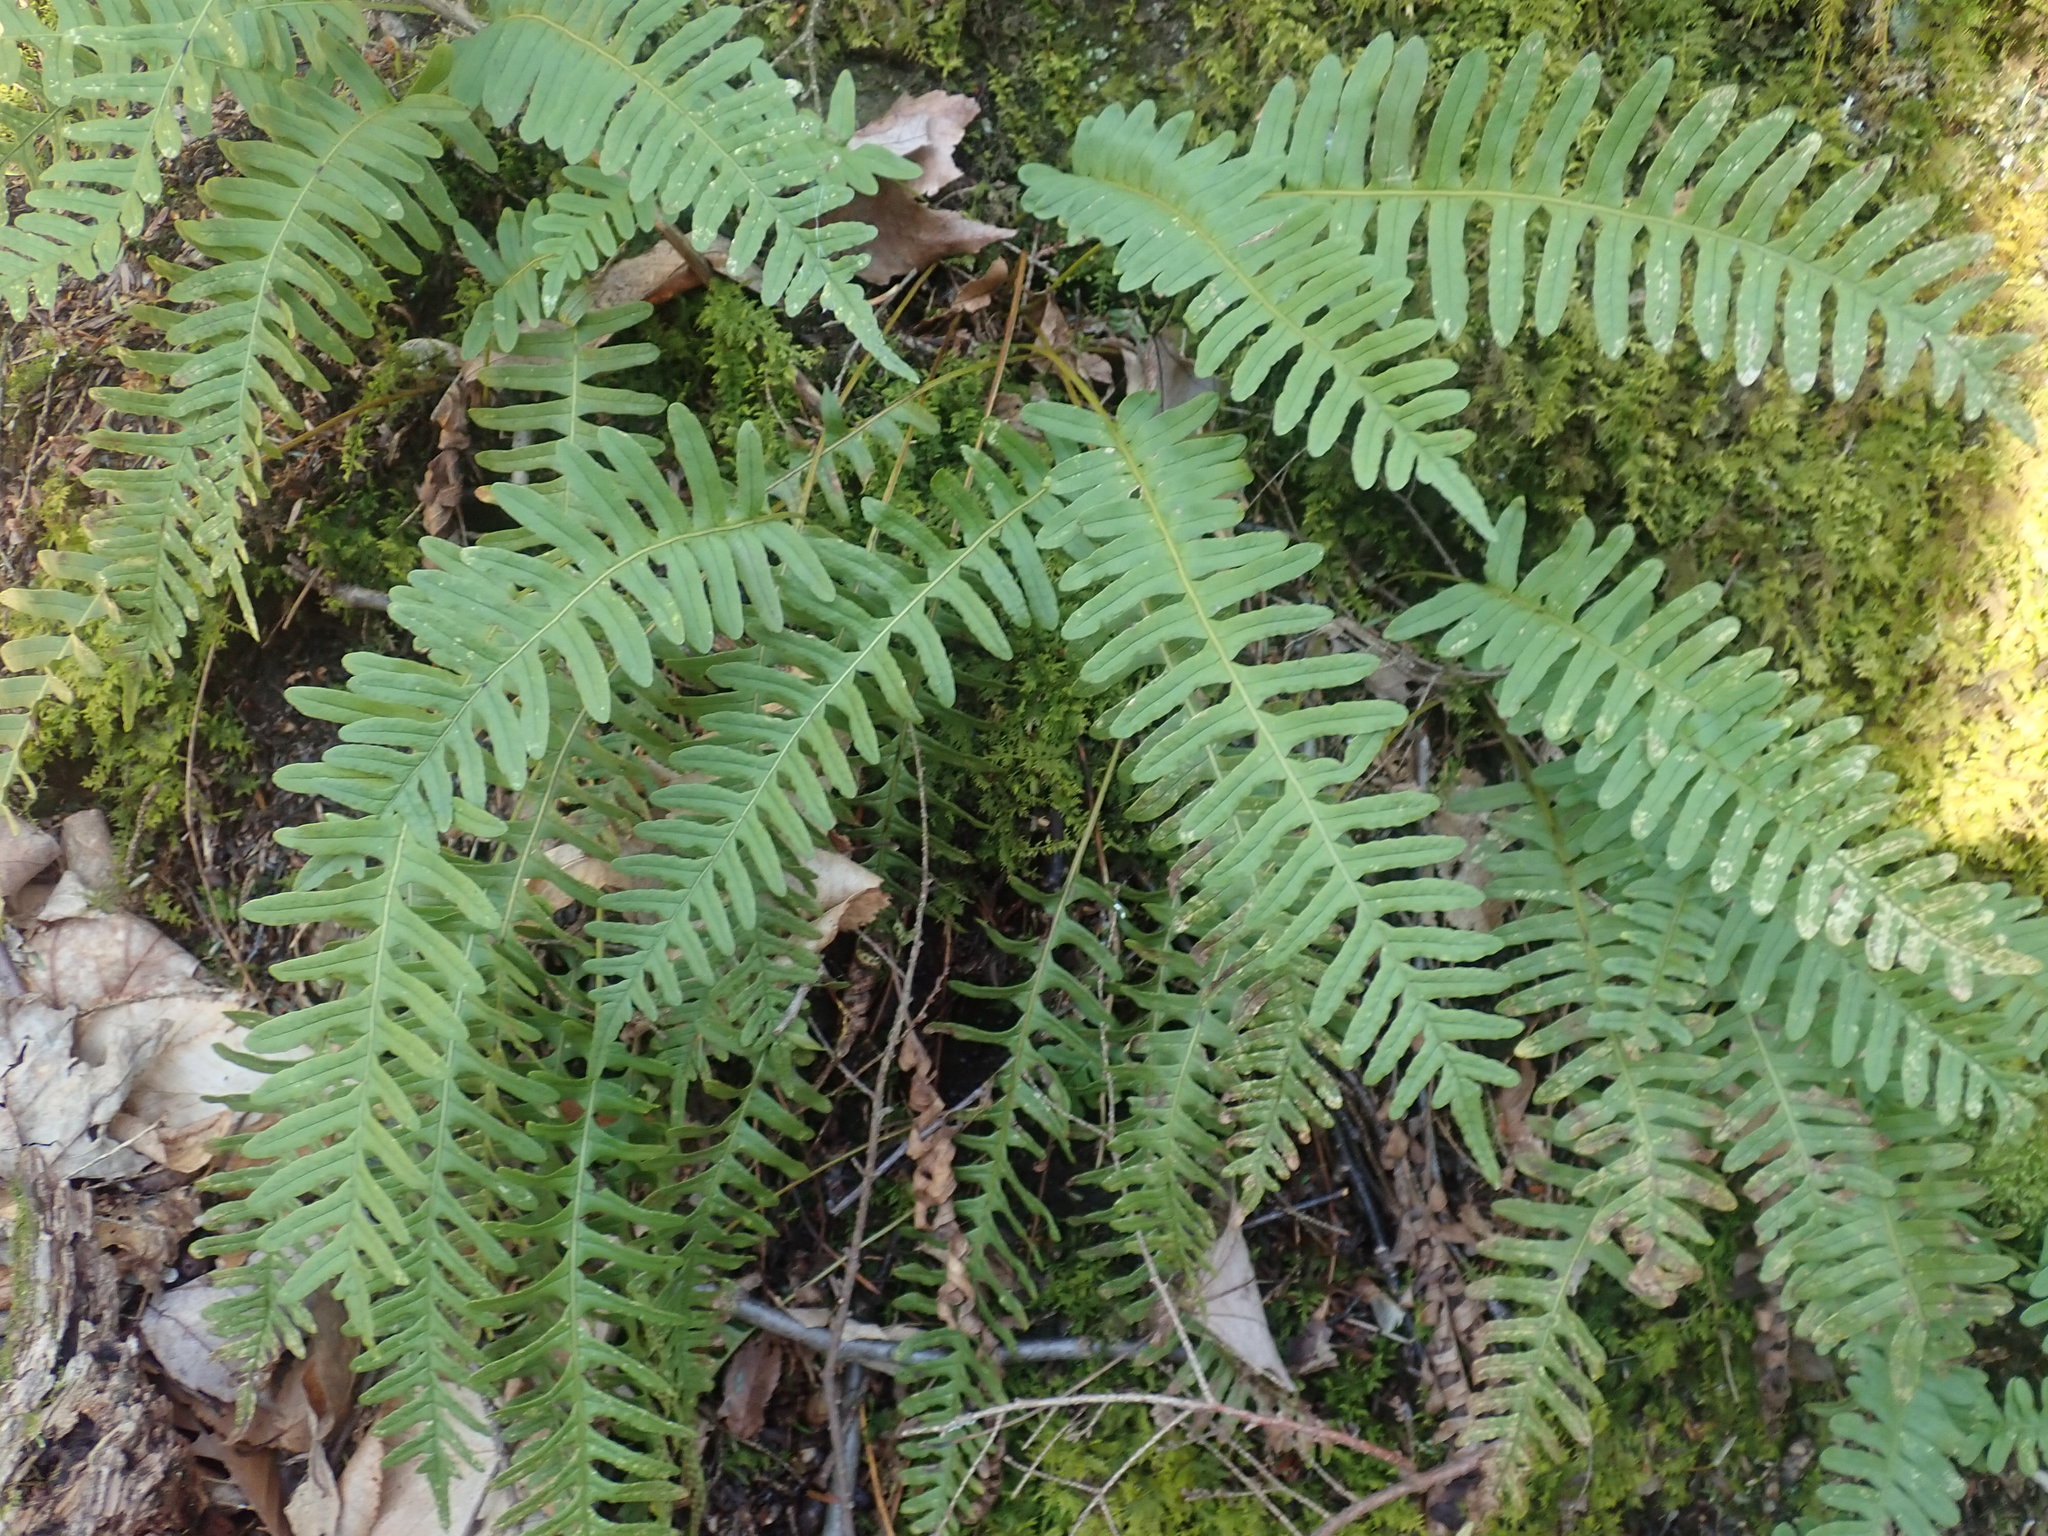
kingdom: Plantae
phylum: Tracheophyta
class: Polypodiopsida
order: Polypodiales
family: Polypodiaceae
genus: Polypodium
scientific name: Polypodium
